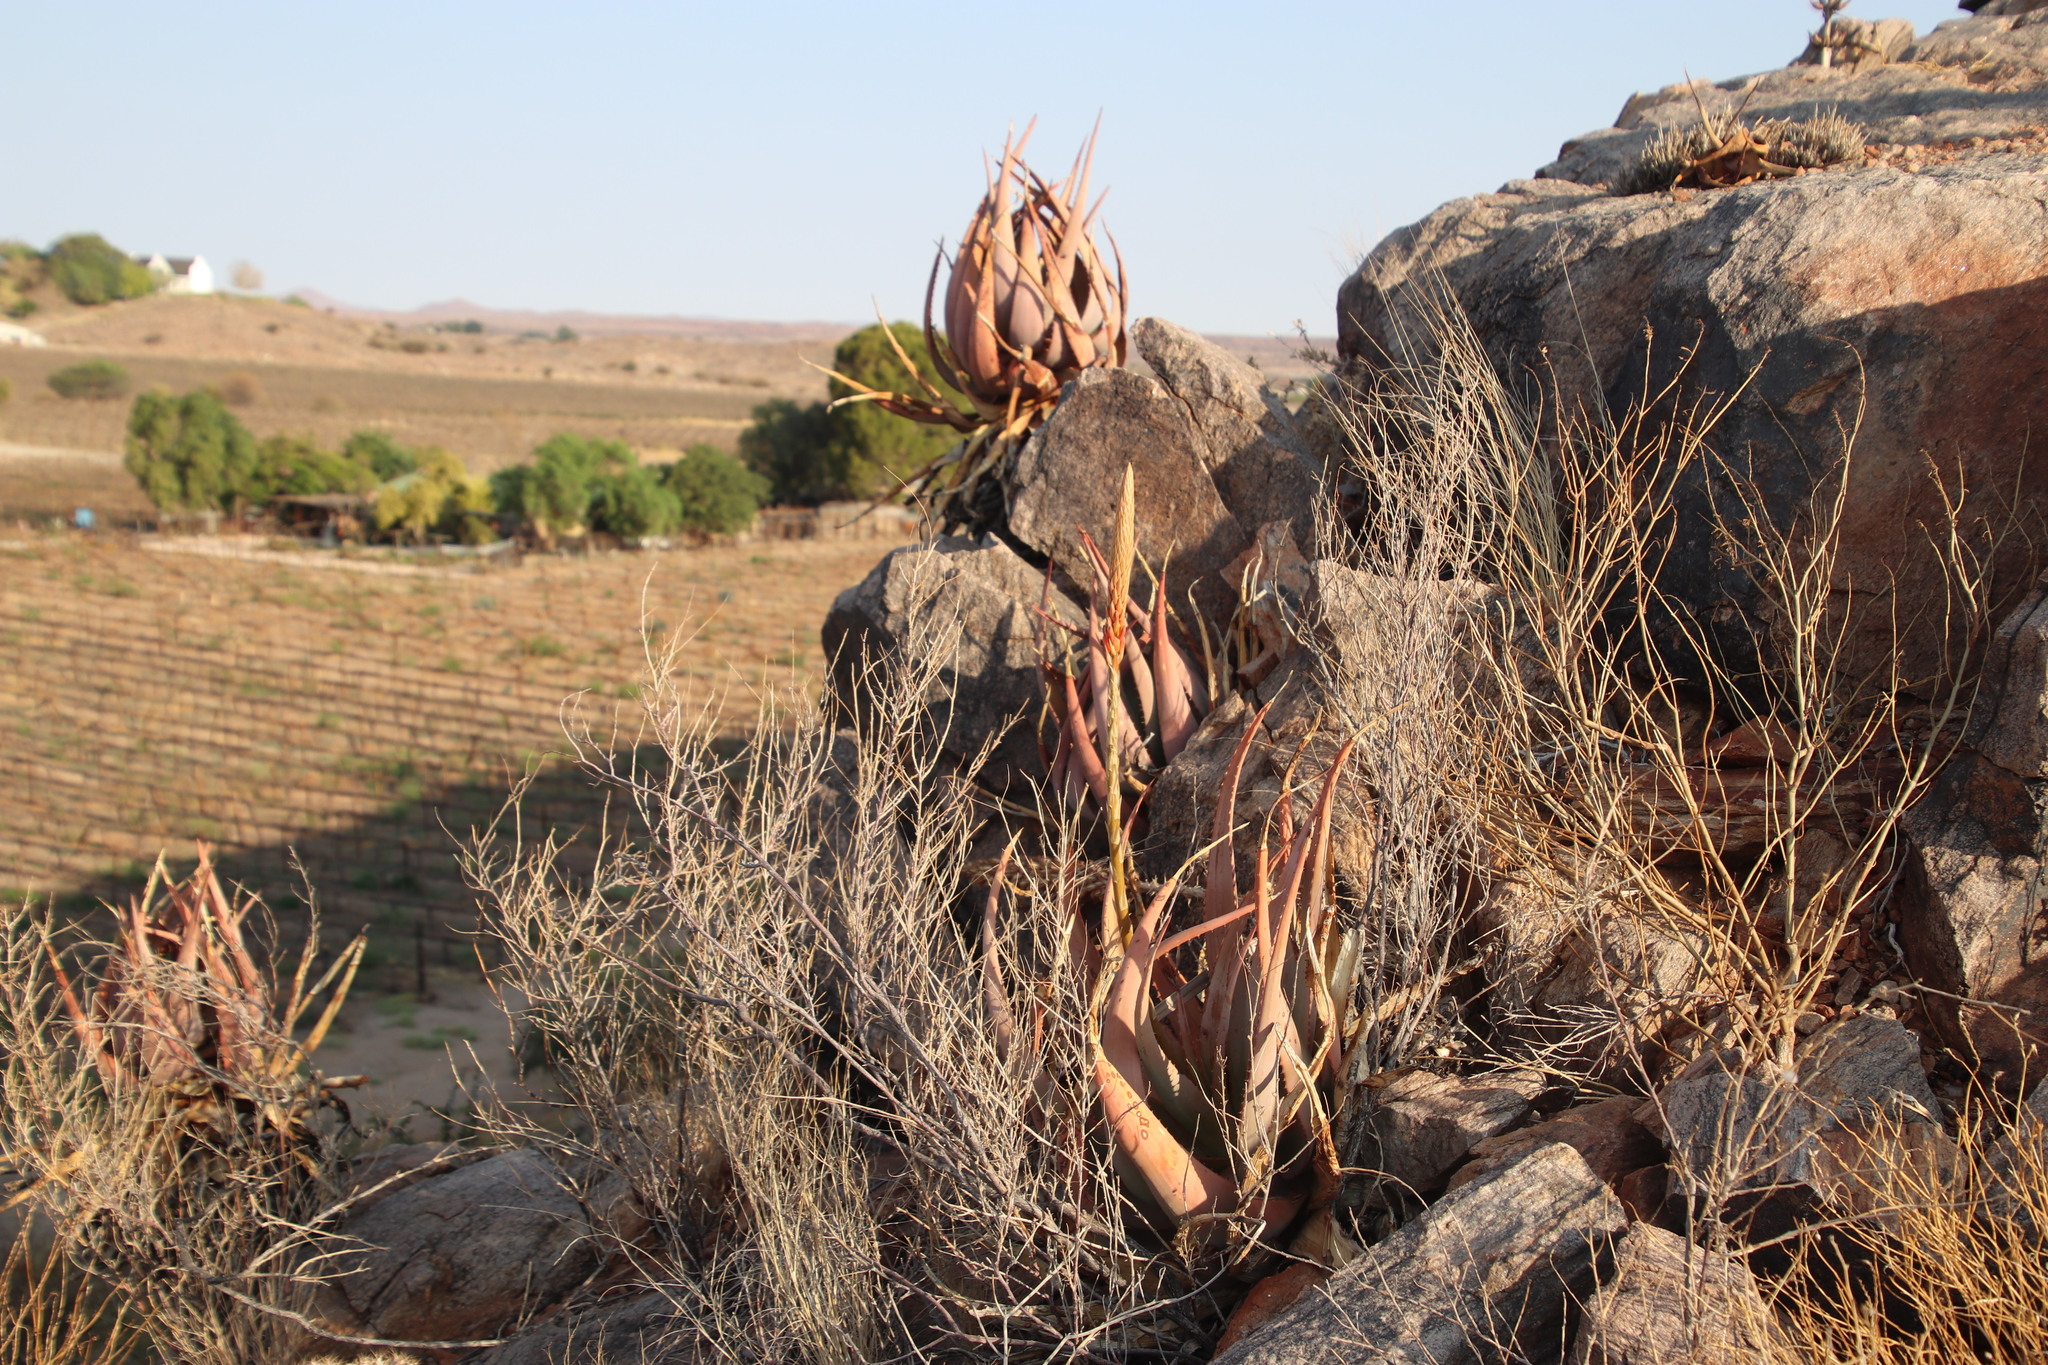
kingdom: Plantae
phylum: Tracheophyta
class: Liliopsida
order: Asparagales
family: Asphodelaceae
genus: Aloe
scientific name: Aloe gariepensis
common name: Orange river aloe
